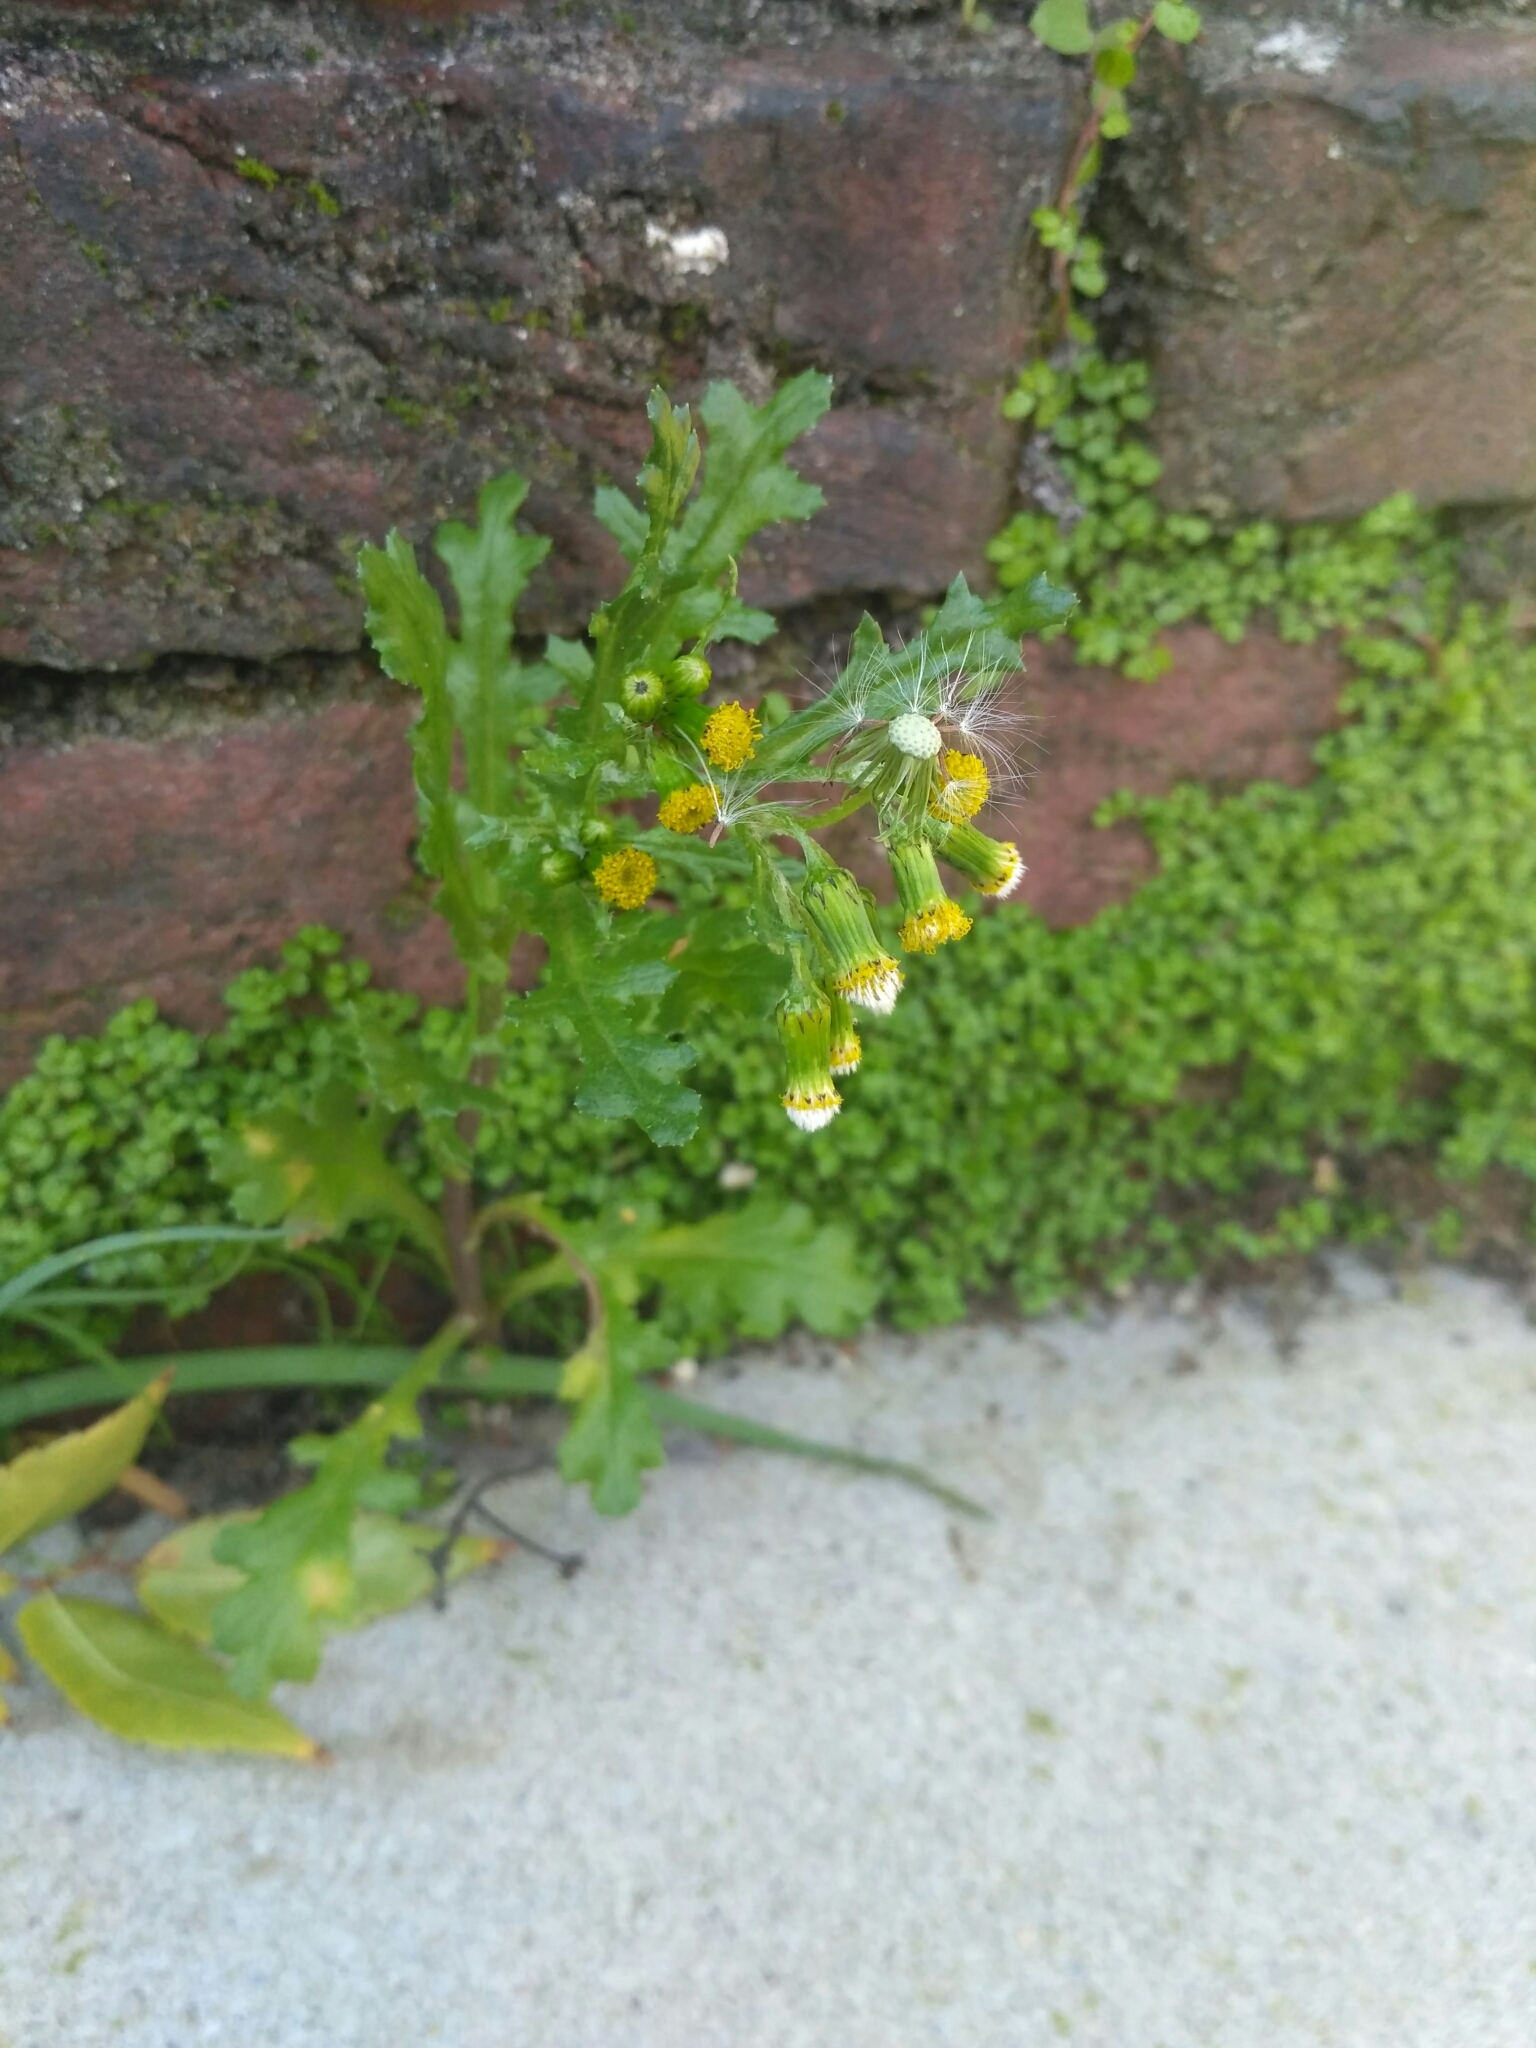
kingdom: Plantae
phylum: Tracheophyta
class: Magnoliopsida
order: Asterales
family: Asteraceae
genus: Senecio
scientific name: Senecio vulgaris
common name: Old-man-in-the-spring
